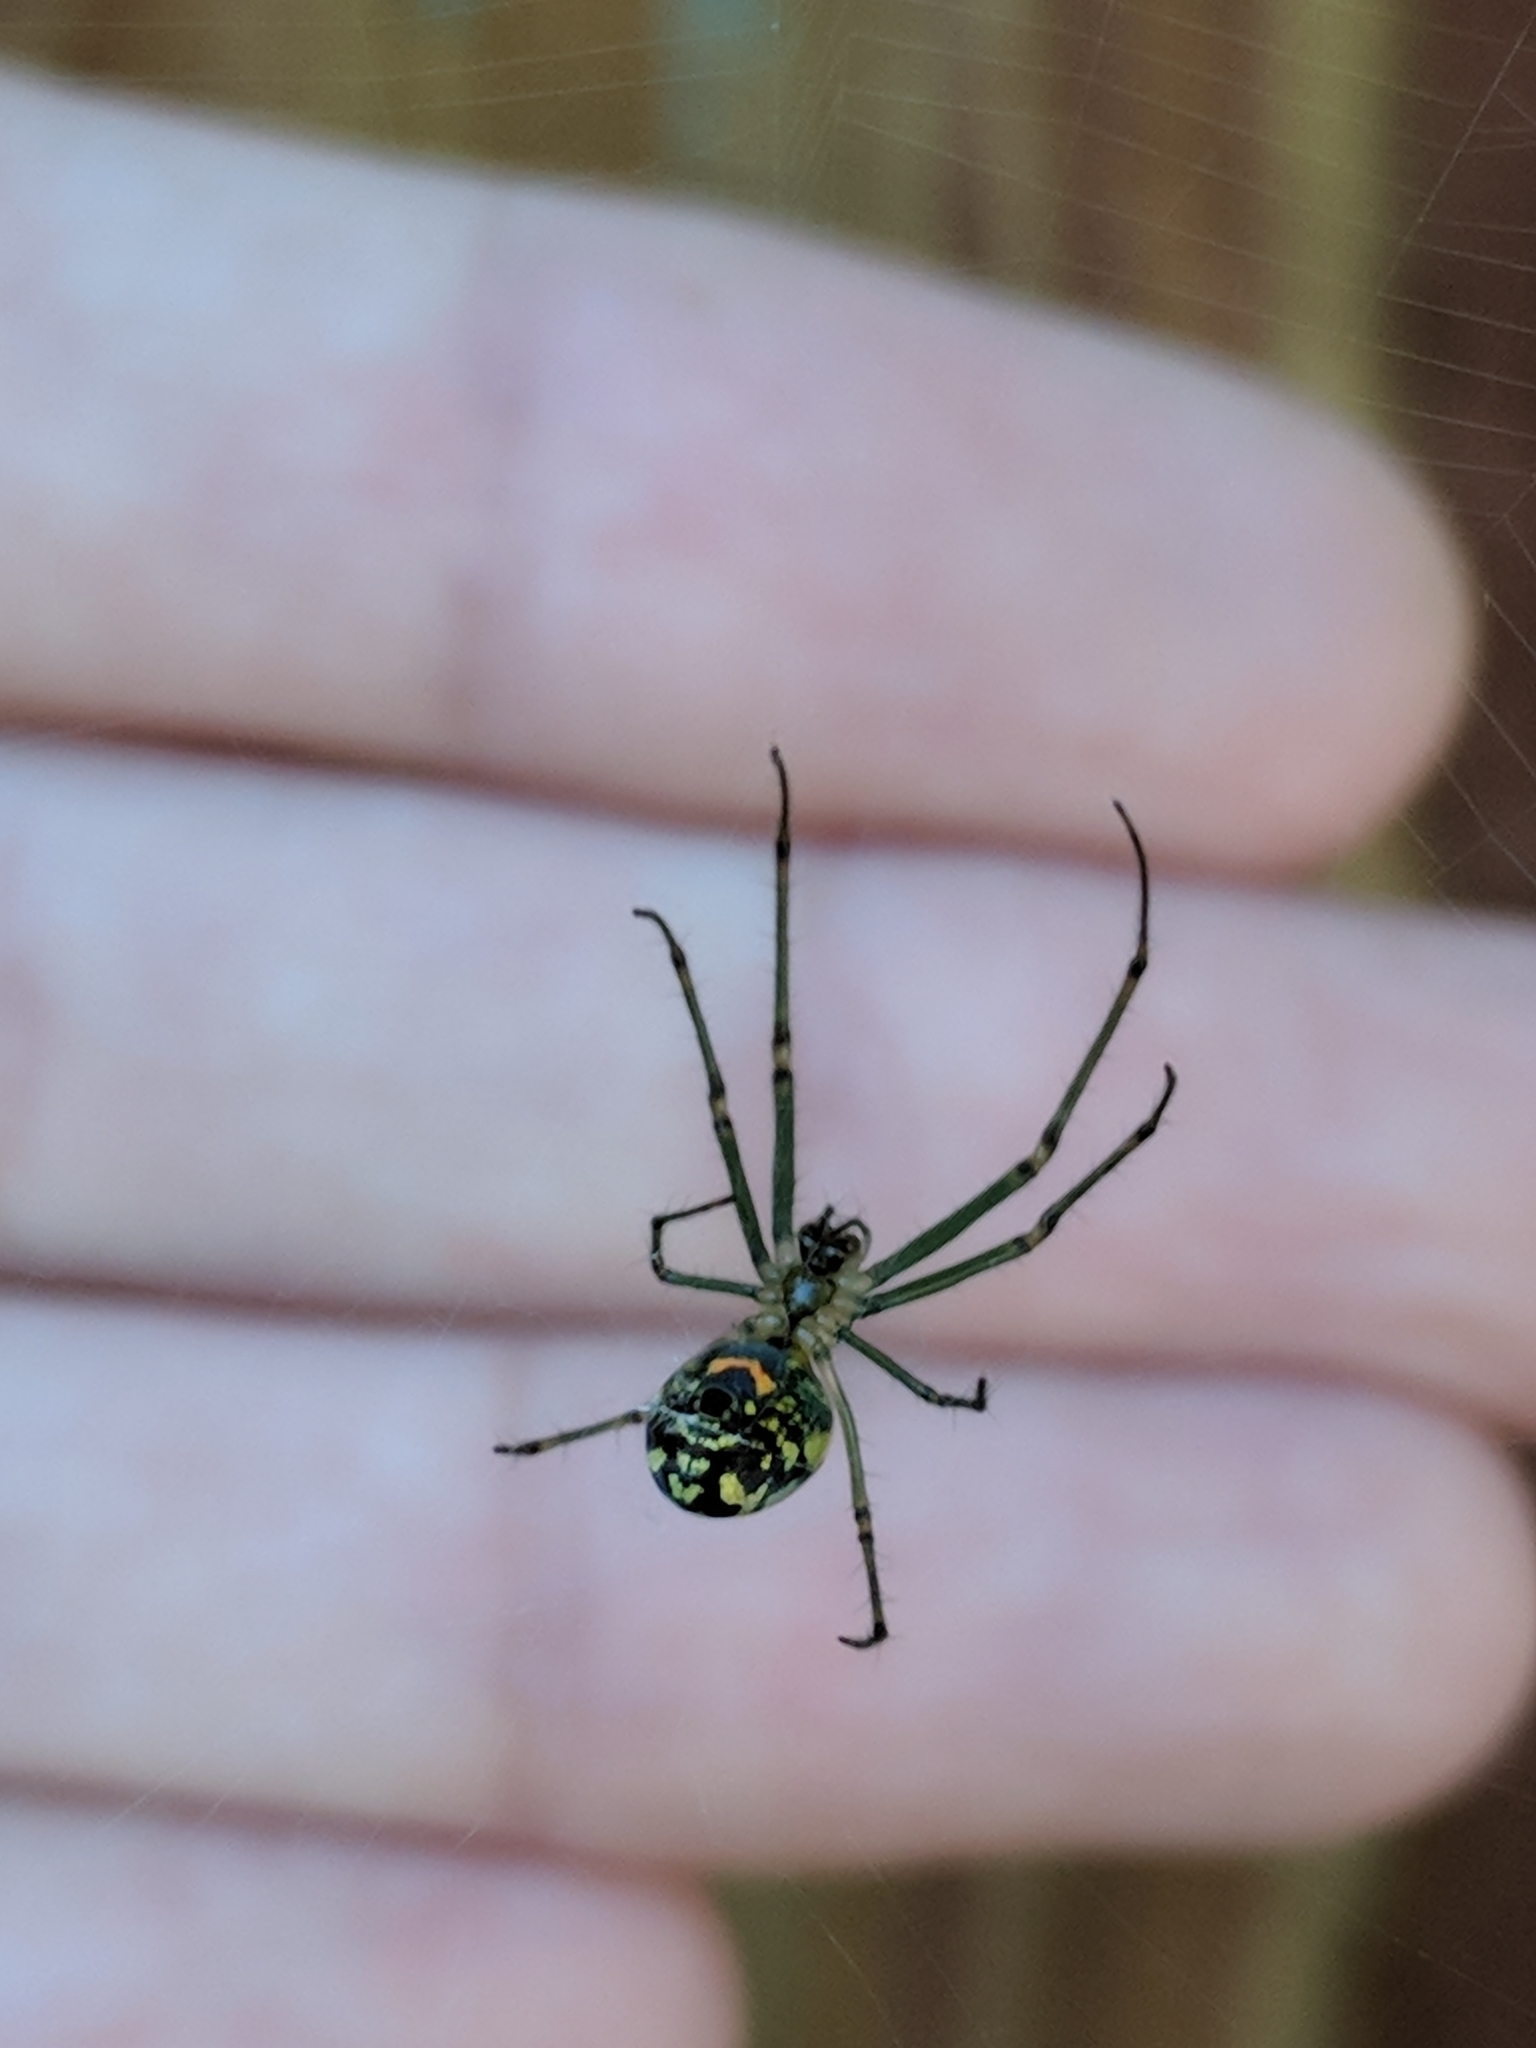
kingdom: Animalia
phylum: Arthropoda
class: Arachnida
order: Araneae
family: Tetragnathidae
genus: Leucauge
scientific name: Leucauge venusta
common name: Longjawed orb weavers
